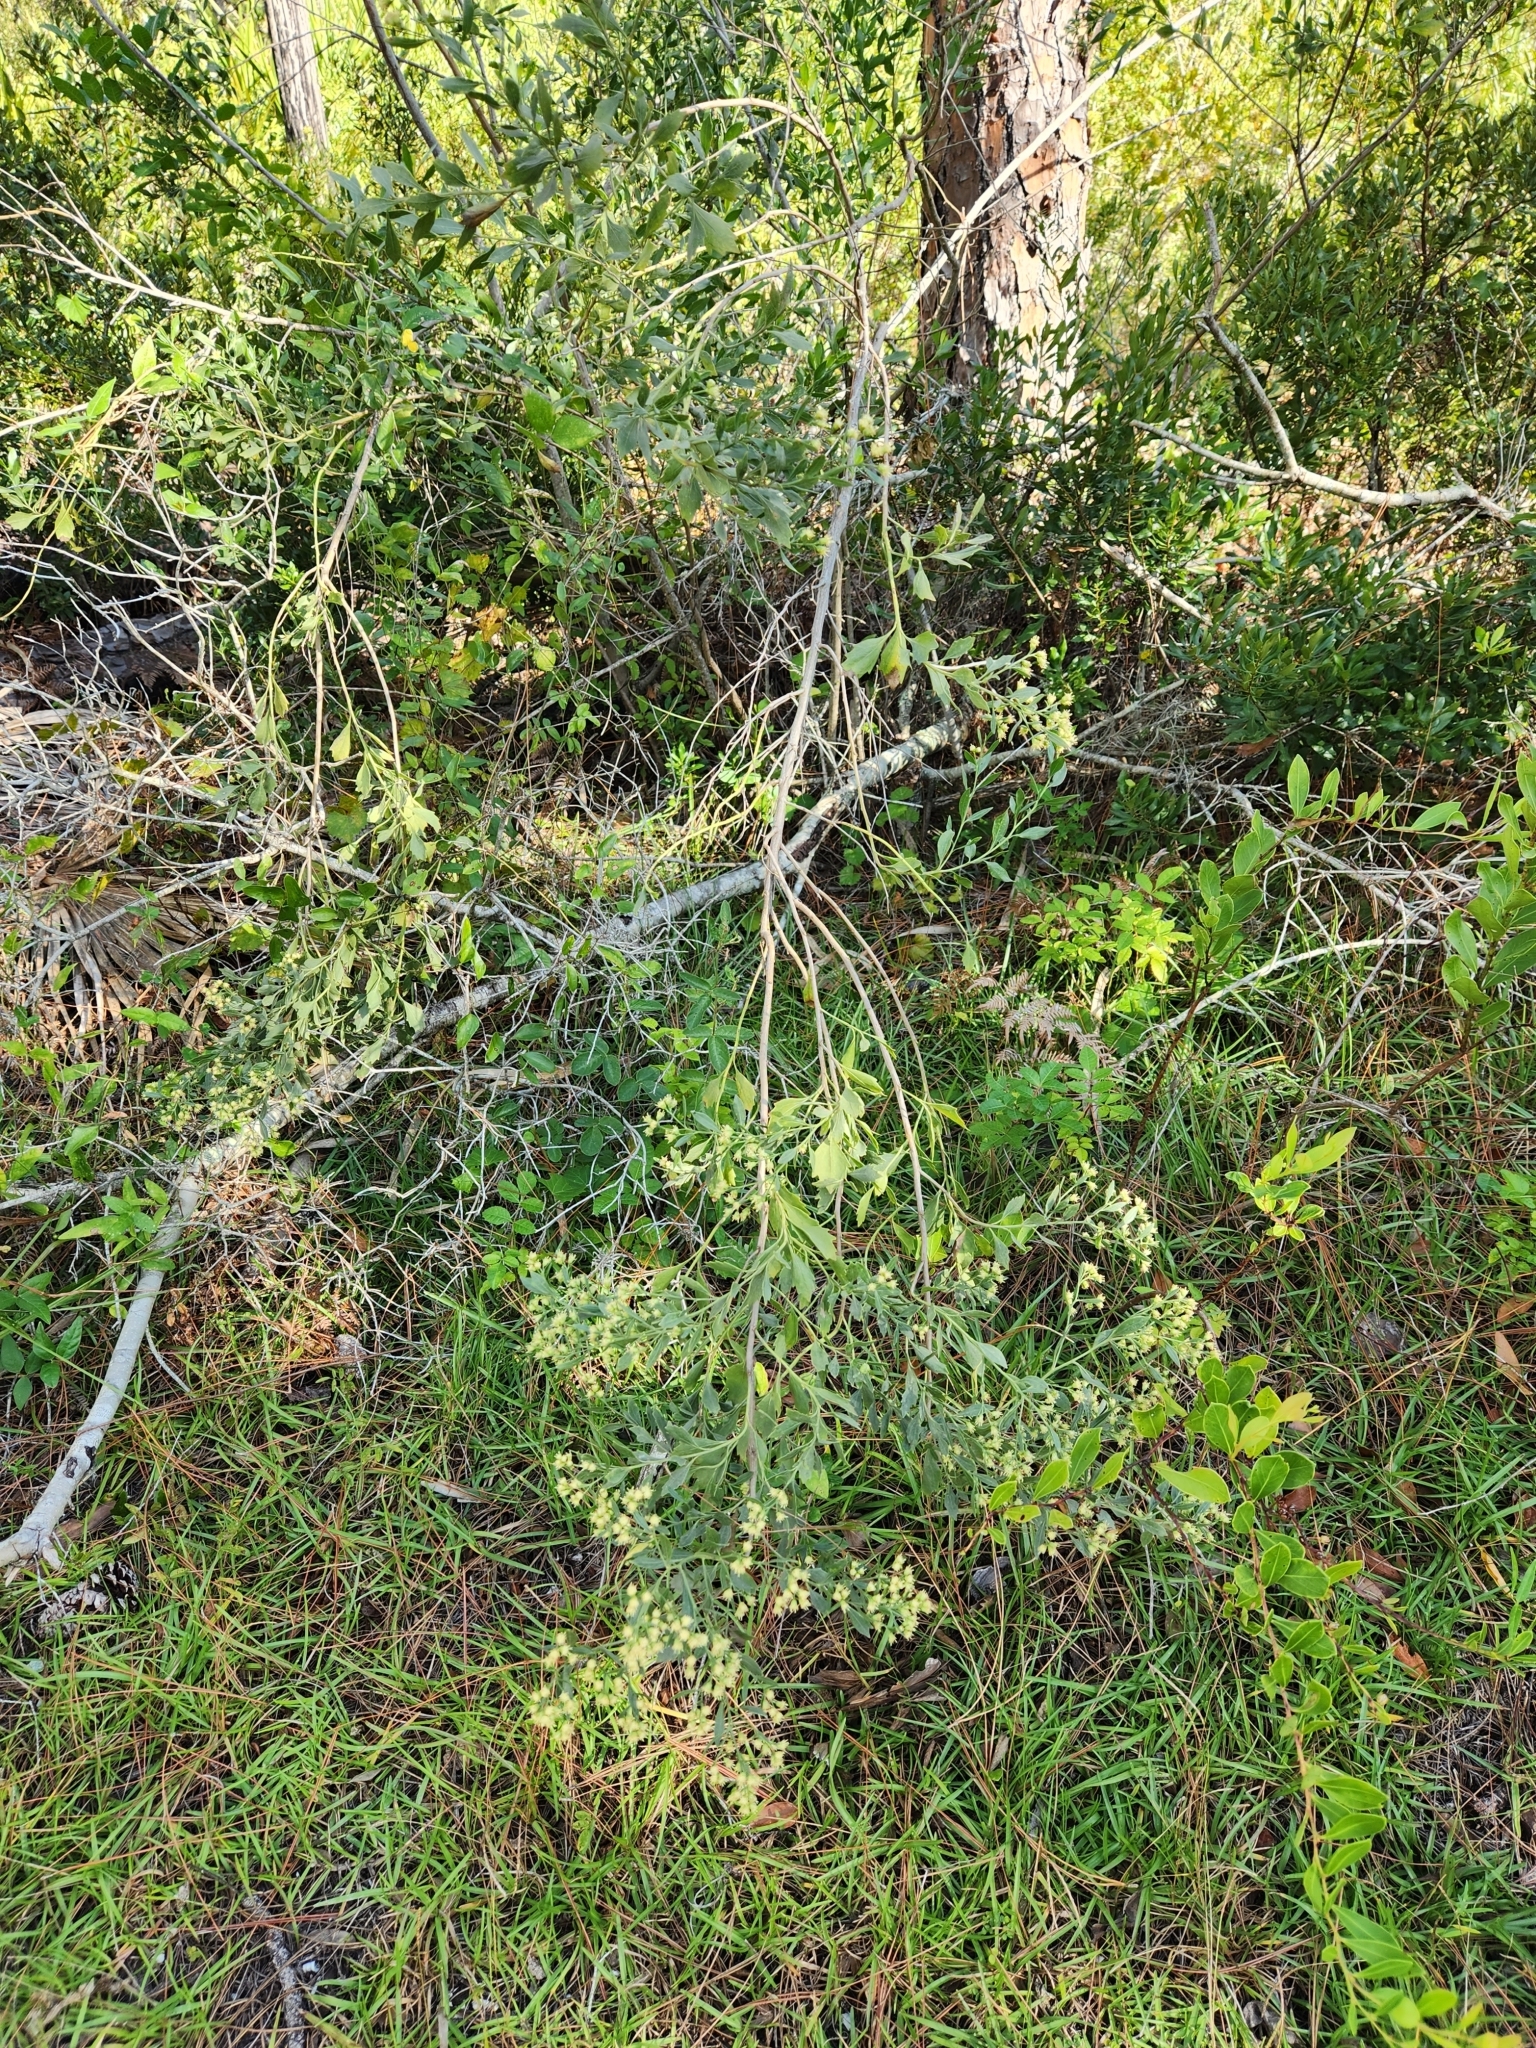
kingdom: Plantae
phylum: Tracheophyta
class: Magnoliopsida
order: Asterales
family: Asteraceae
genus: Baccharis
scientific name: Baccharis halimifolia
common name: Eastern baccharis
